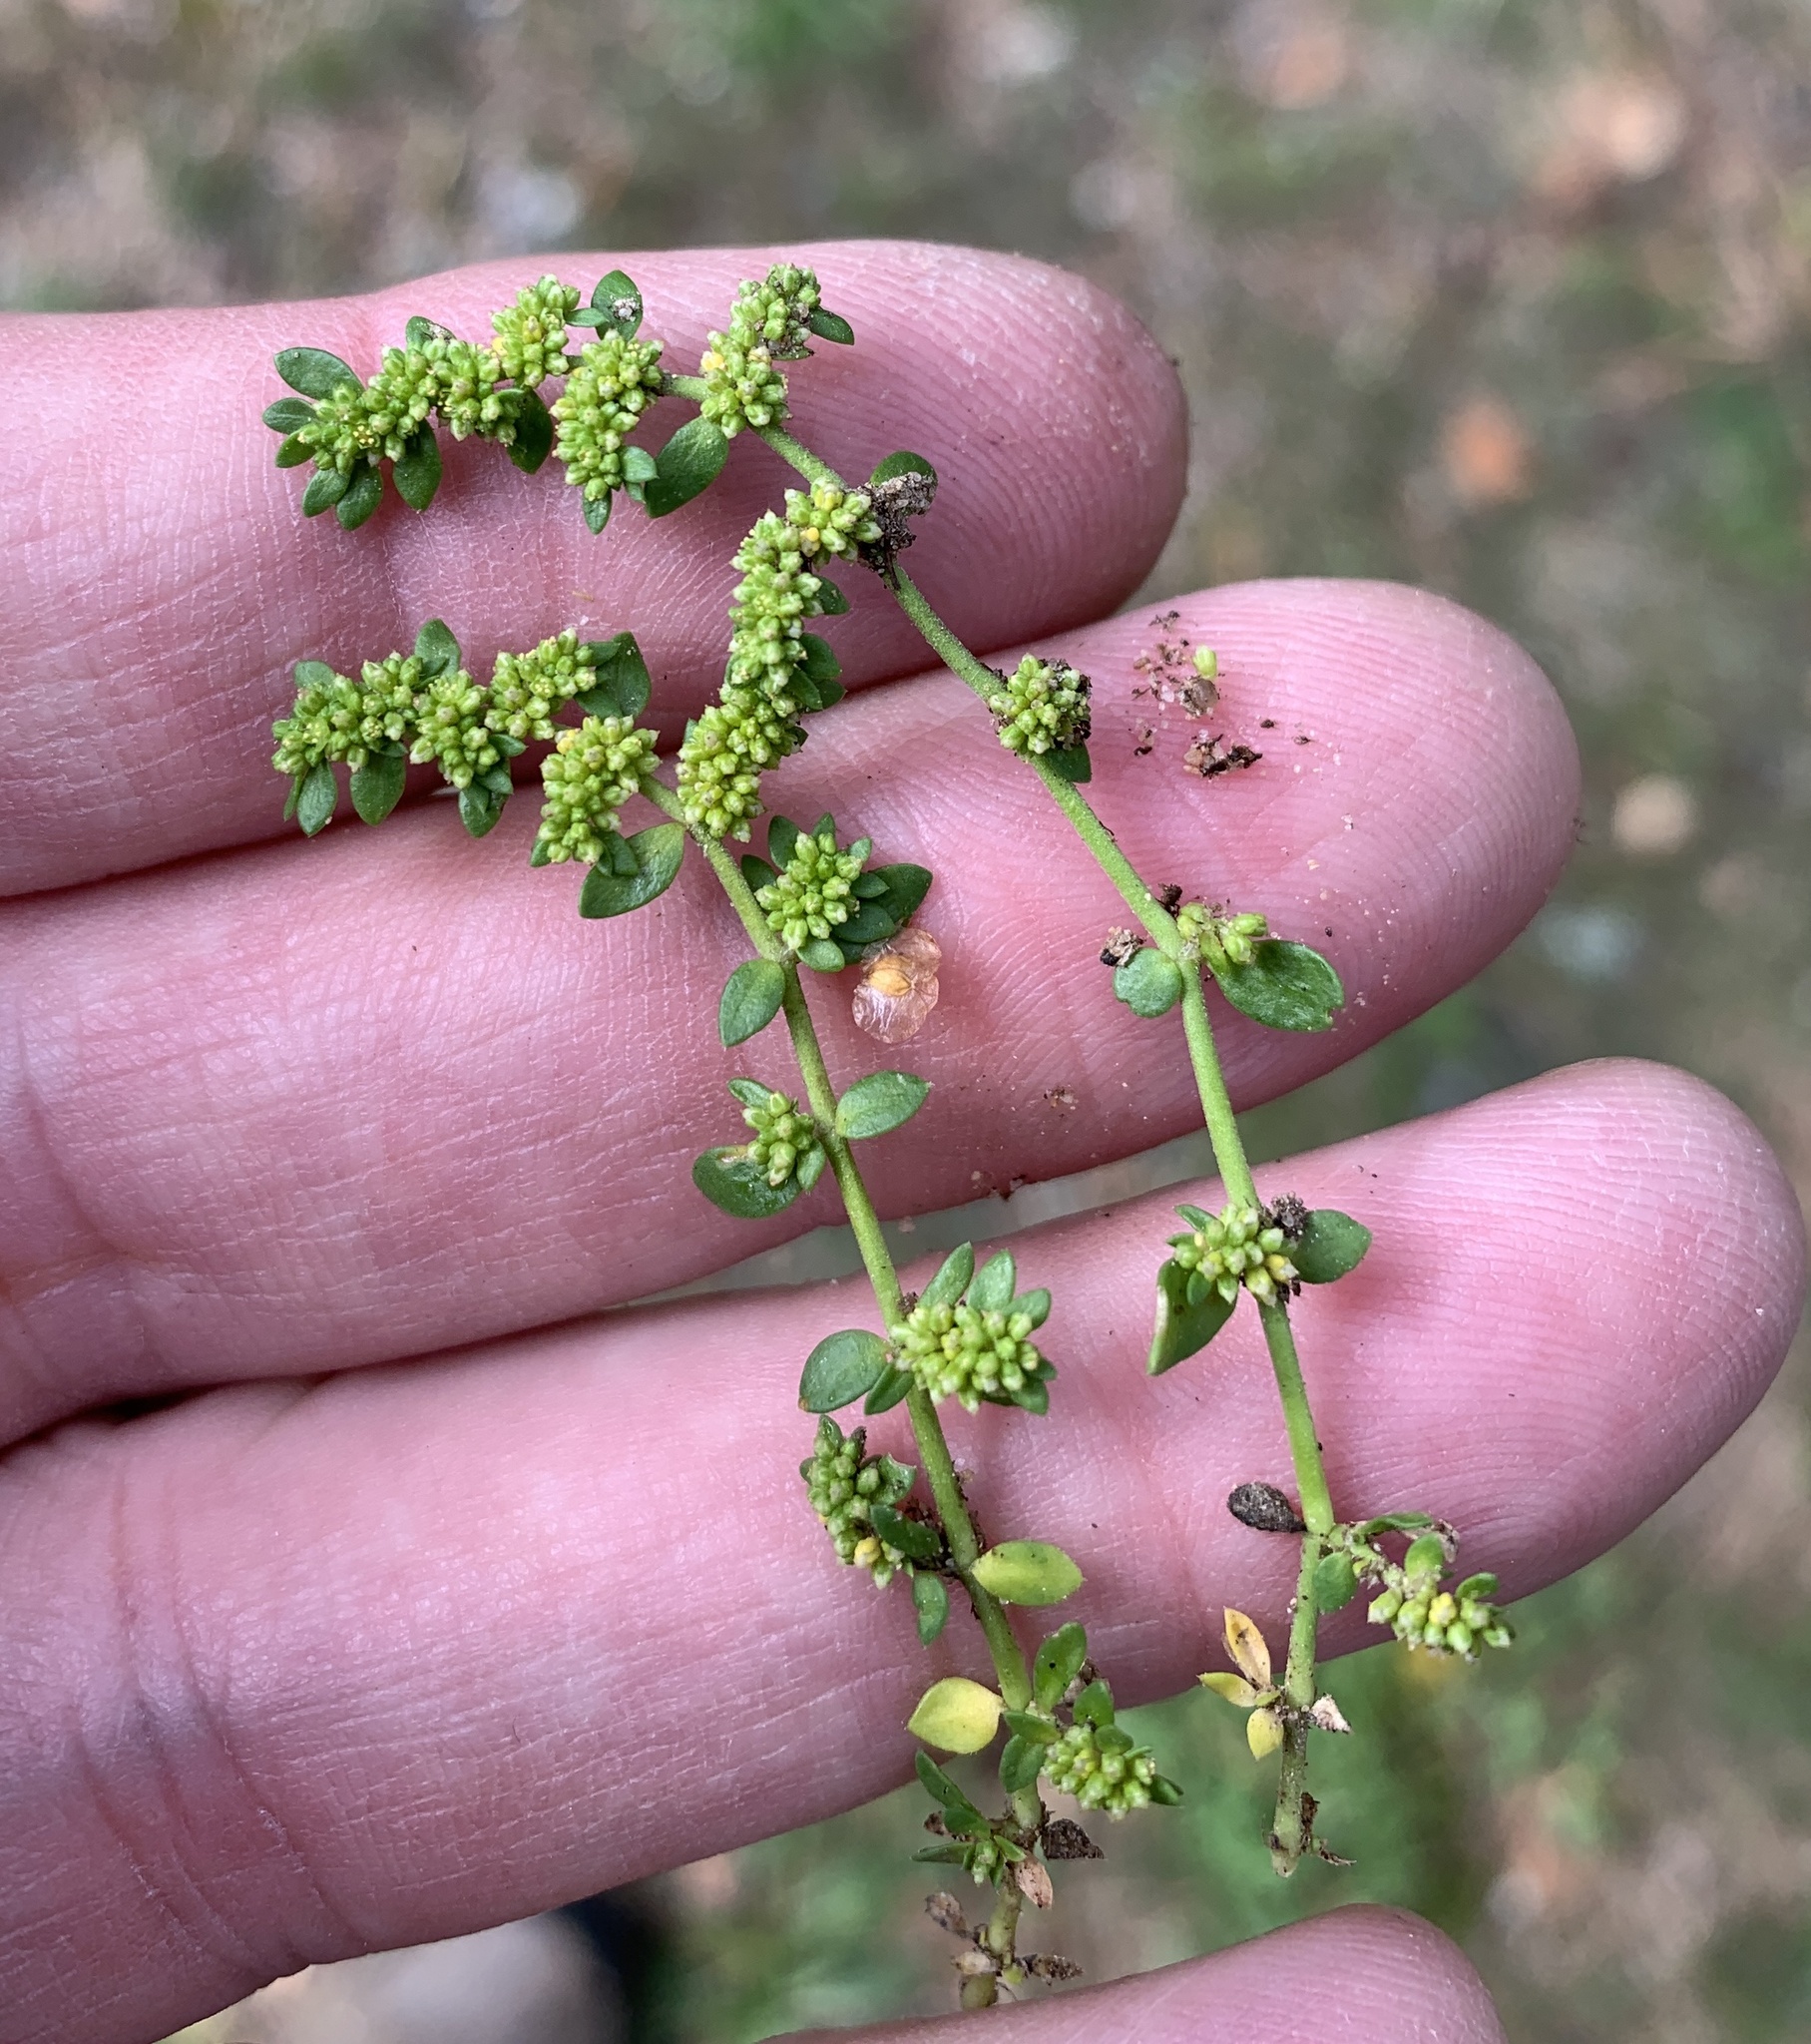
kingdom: Plantae
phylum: Tracheophyta
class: Magnoliopsida
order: Caryophyllales
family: Caryophyllaceae
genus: Herniaria
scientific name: Herniaria glabra
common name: Smooth rupturewort
